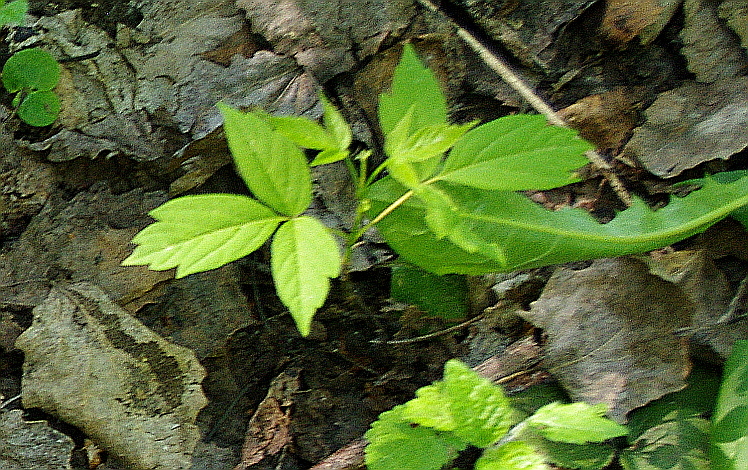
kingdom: Plantae
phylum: Tracheophyta
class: Magnoliopsida
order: Sapindales
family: Sapindaceae
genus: Acer
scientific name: Acer negundo
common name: Ashleaf maple
